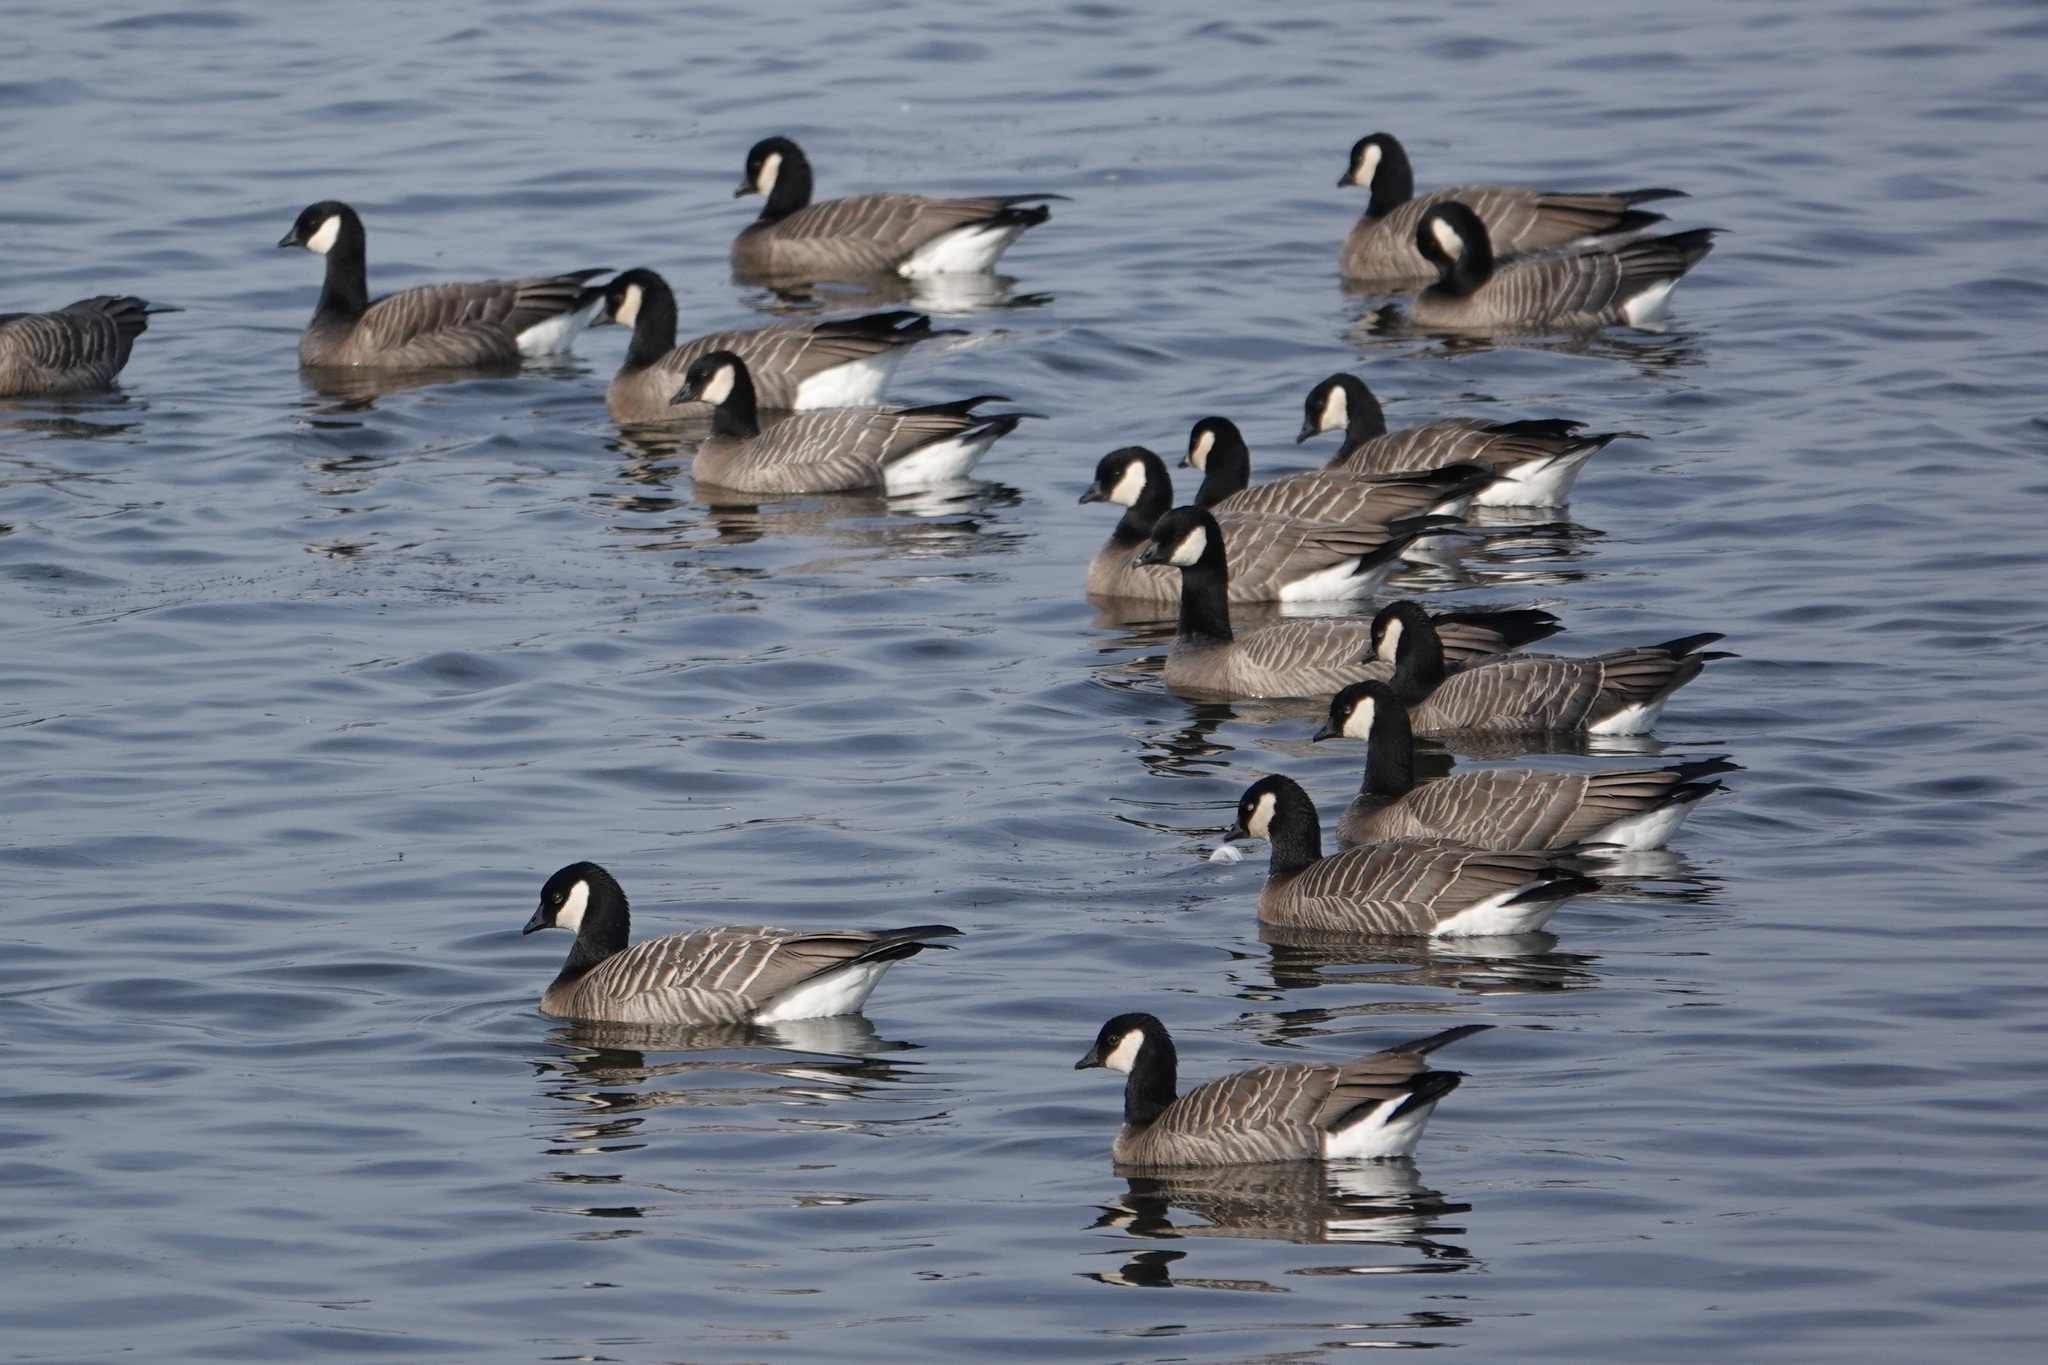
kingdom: Animalia
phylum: Chordata
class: Aves
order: Anseriformes
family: Anatidae
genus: Branta
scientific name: Branta hutchinsii
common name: Cackling goose
